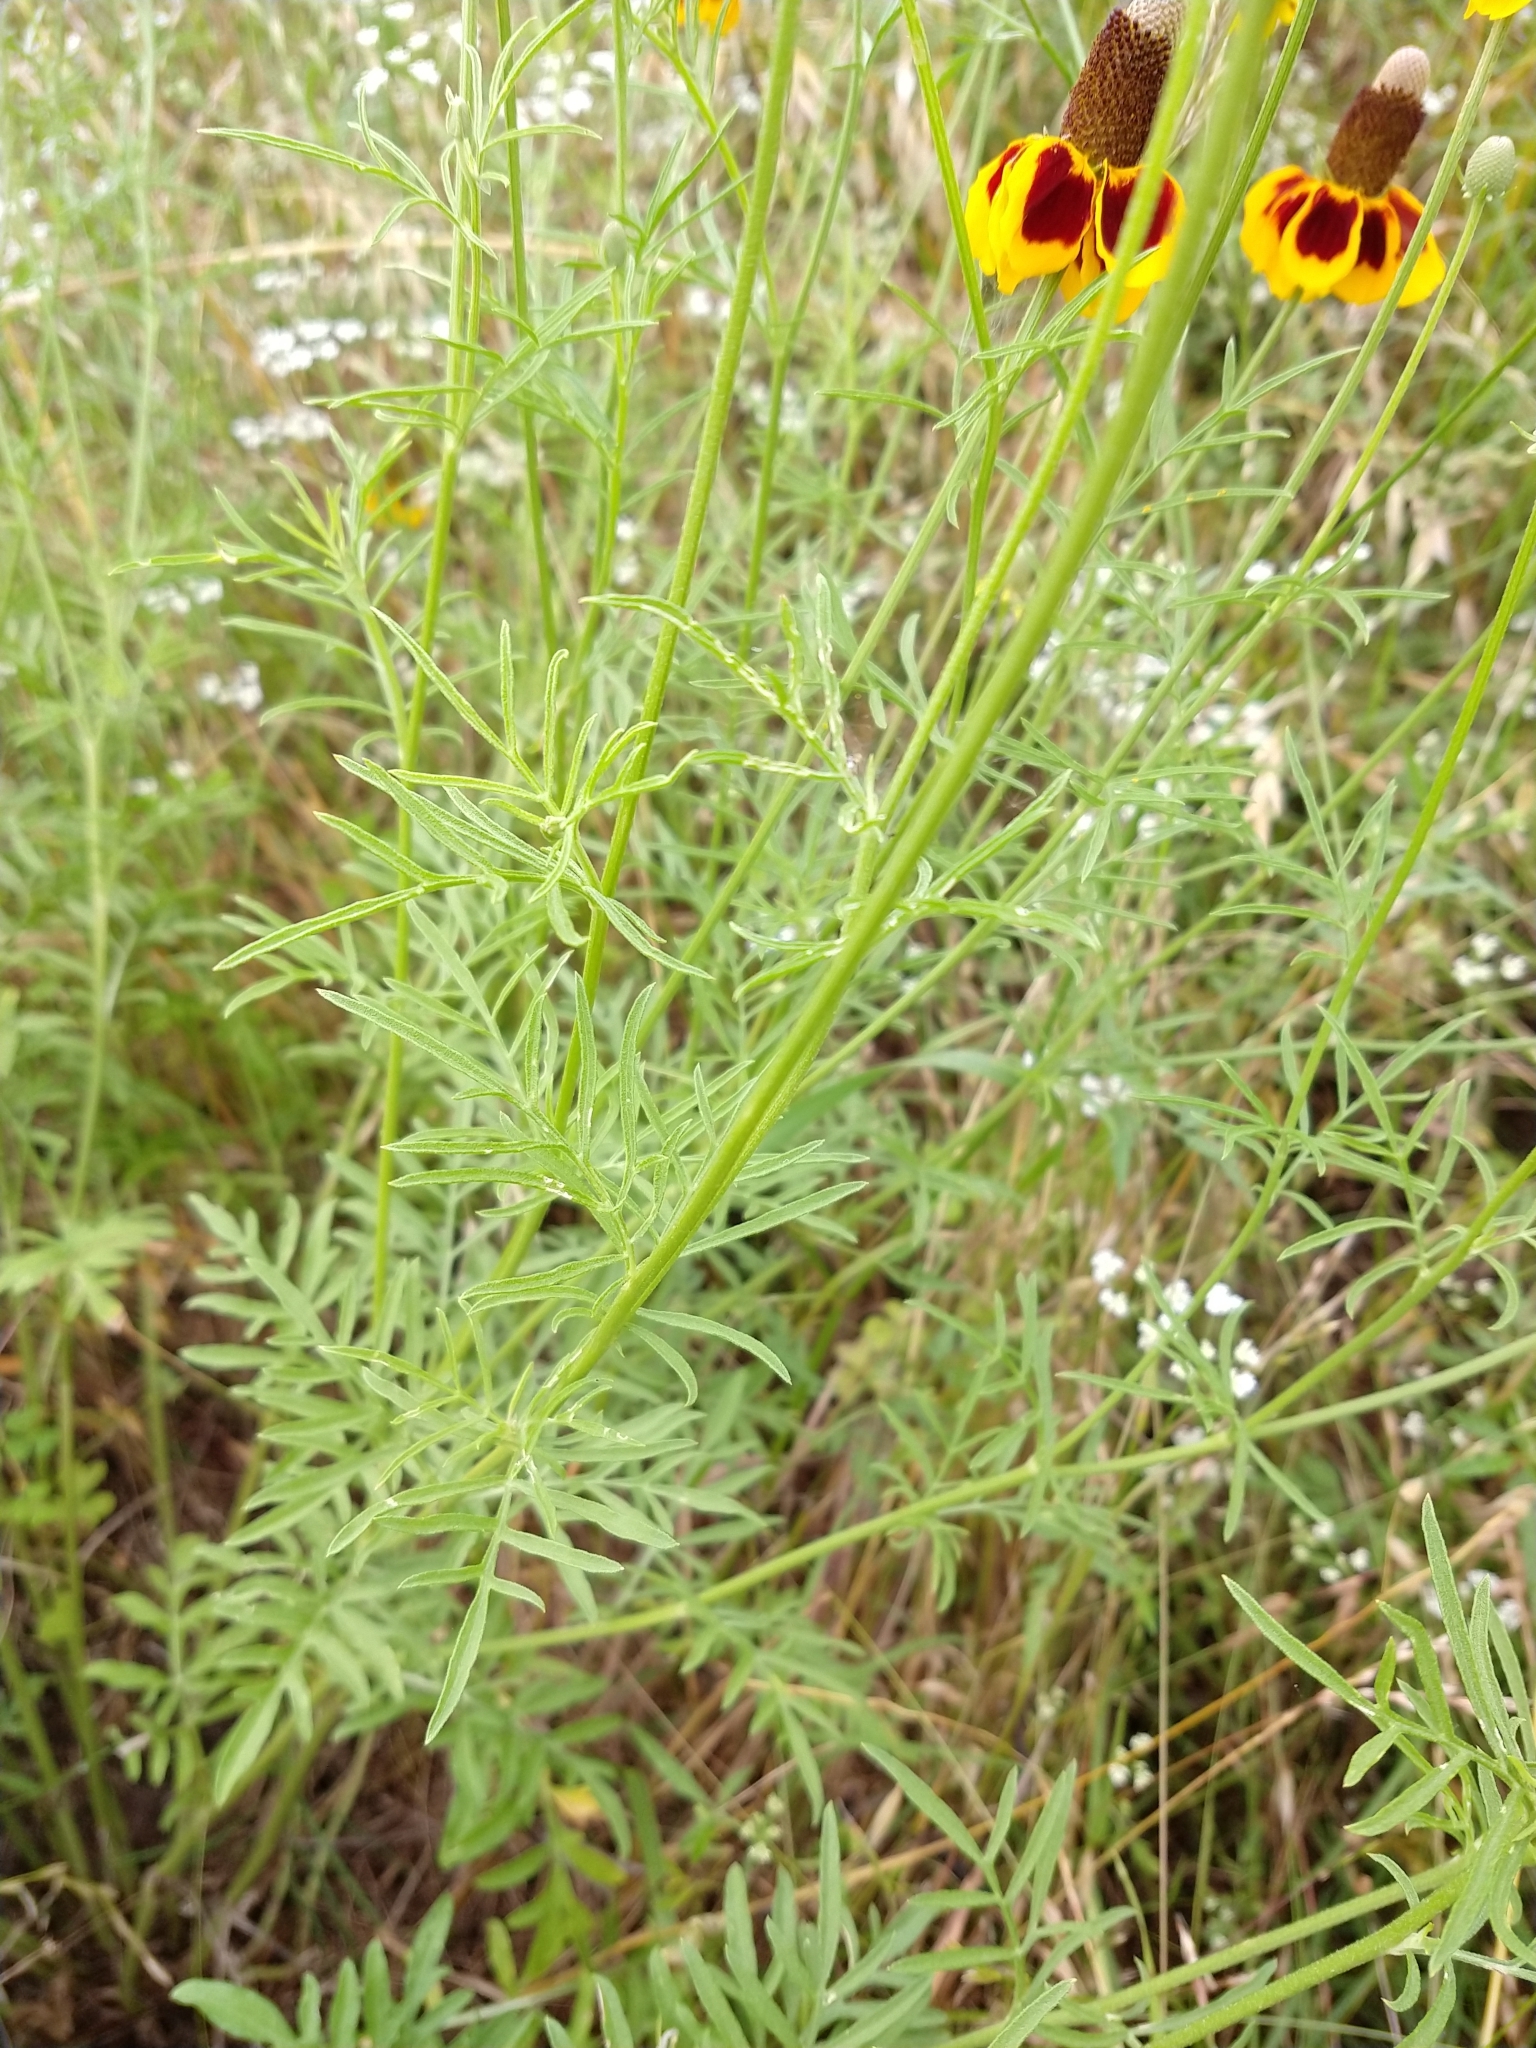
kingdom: Plantae
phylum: Tracheophyta
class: Magnoliopsida
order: Asterales
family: Asteraceae
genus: Ratibida
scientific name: Ratibida columnifera
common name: Prairie coneflower
